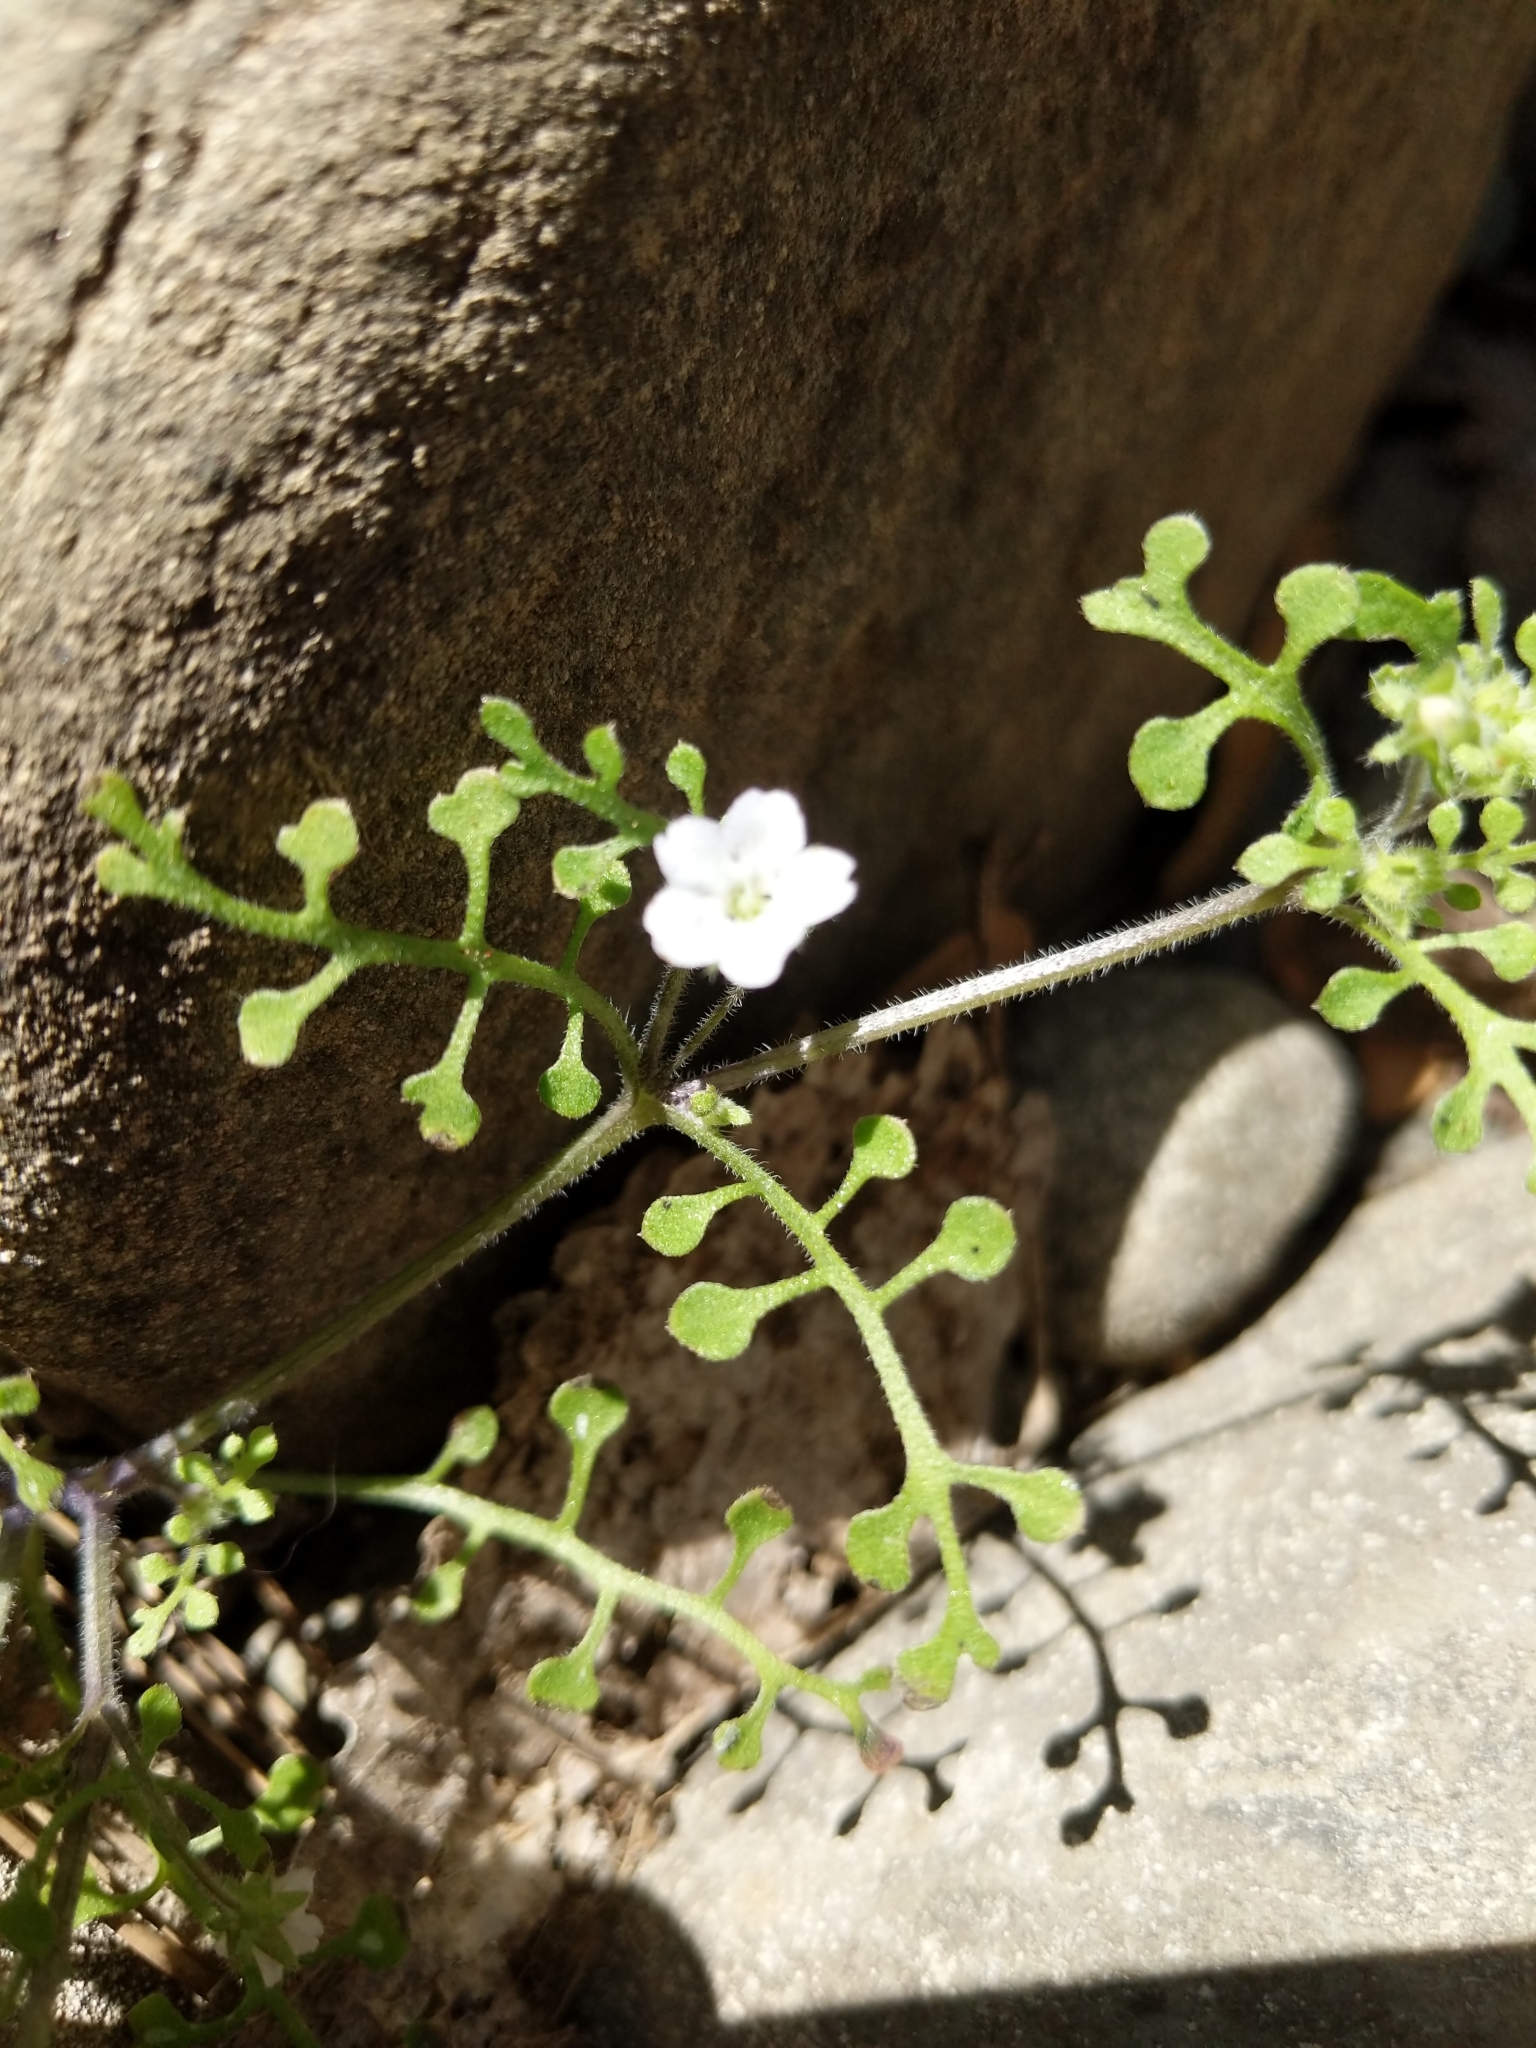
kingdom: Plantae
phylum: Tracheophyta
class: Magnoliopsida
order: Boraginales
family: Hydrophyllaceae
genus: Nemophila
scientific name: Nemophila heterophylla
